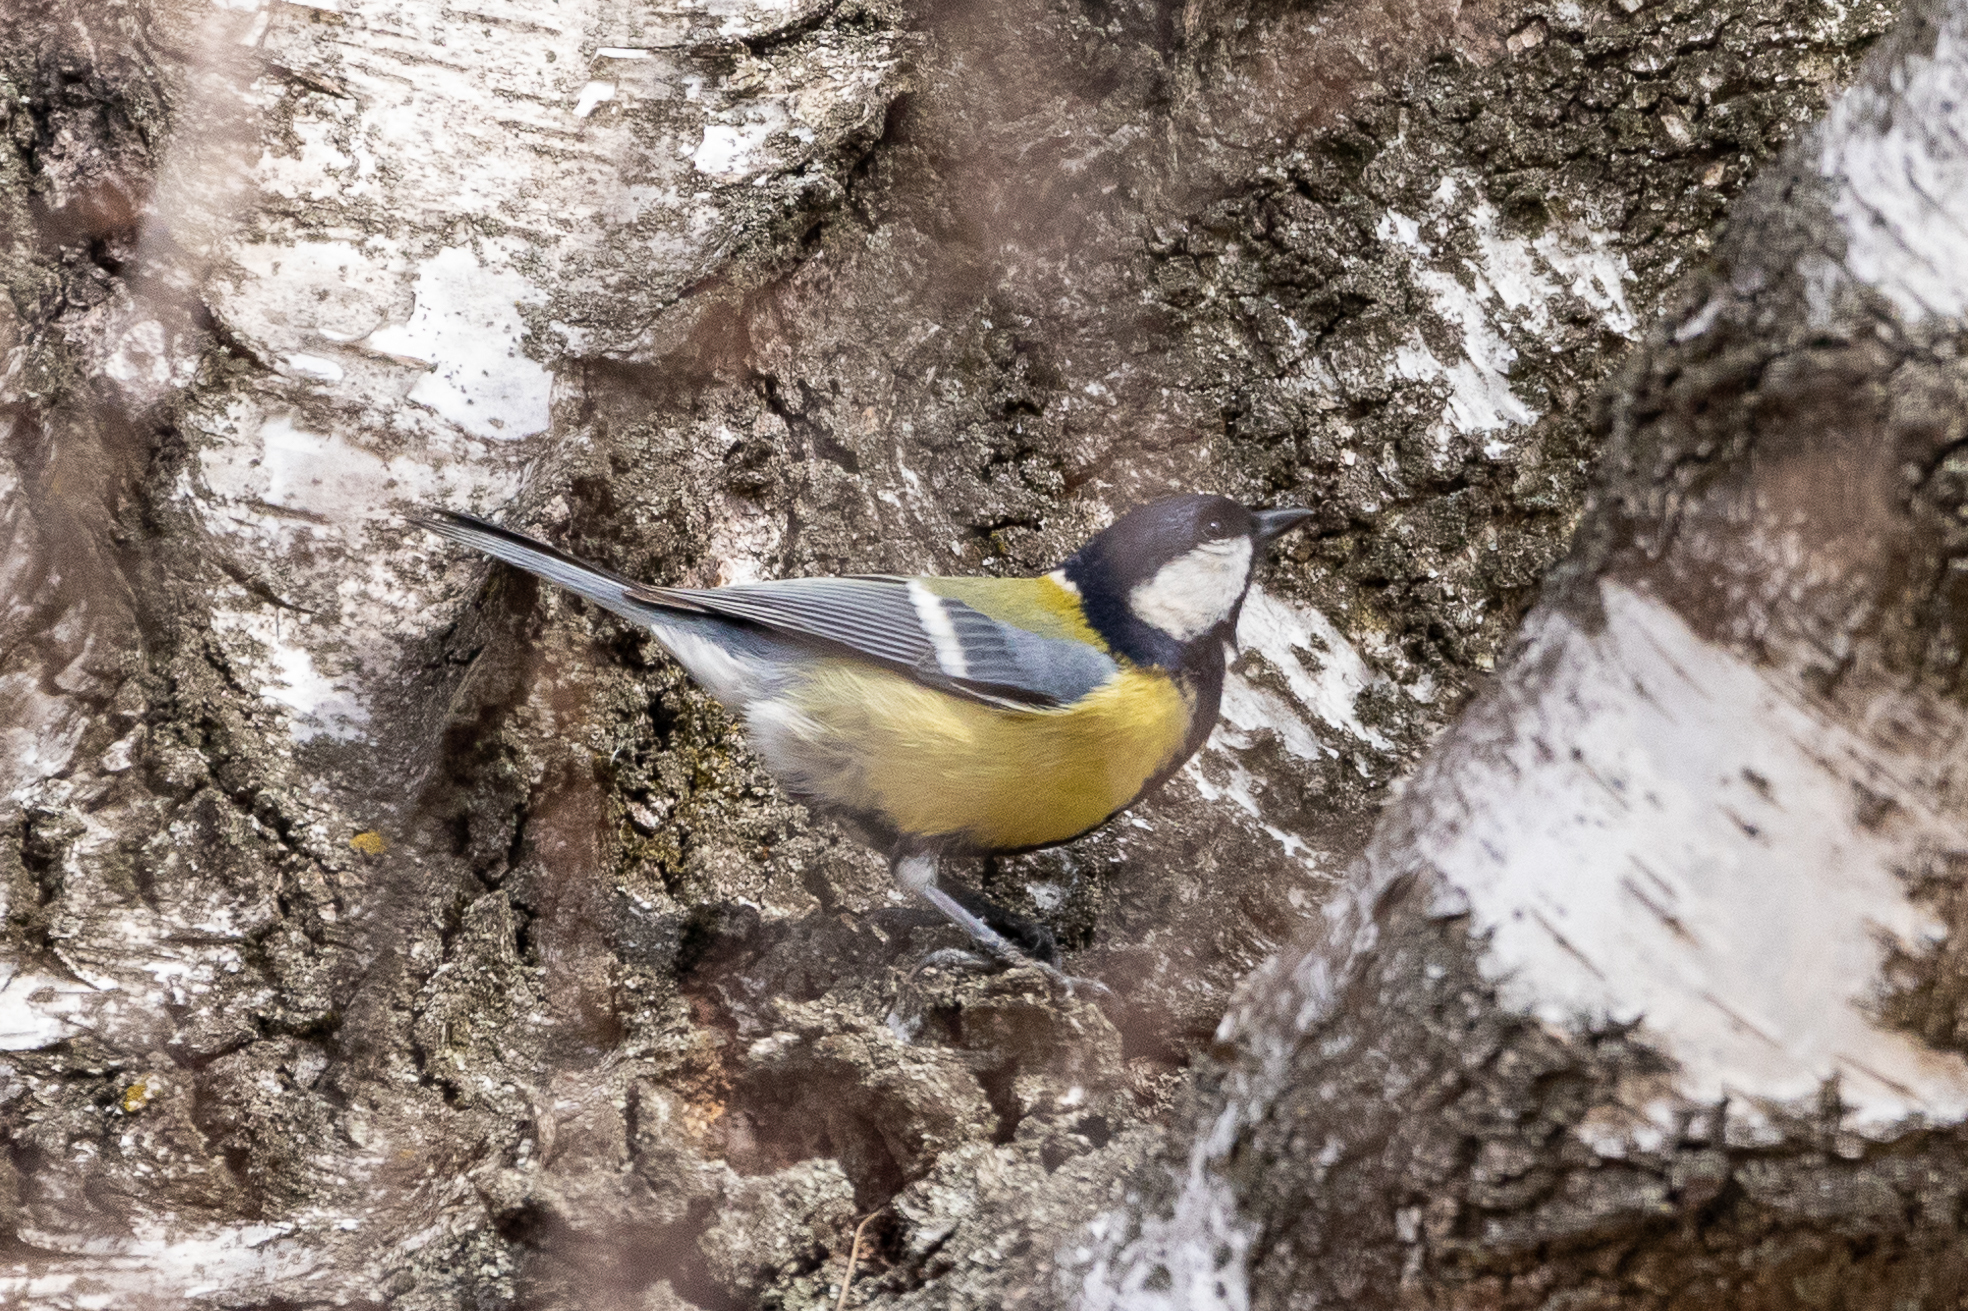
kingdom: Animalia
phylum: Chordata
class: Aves
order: Passeriformes
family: Paridae
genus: Parus
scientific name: Parus major
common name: Great tit
